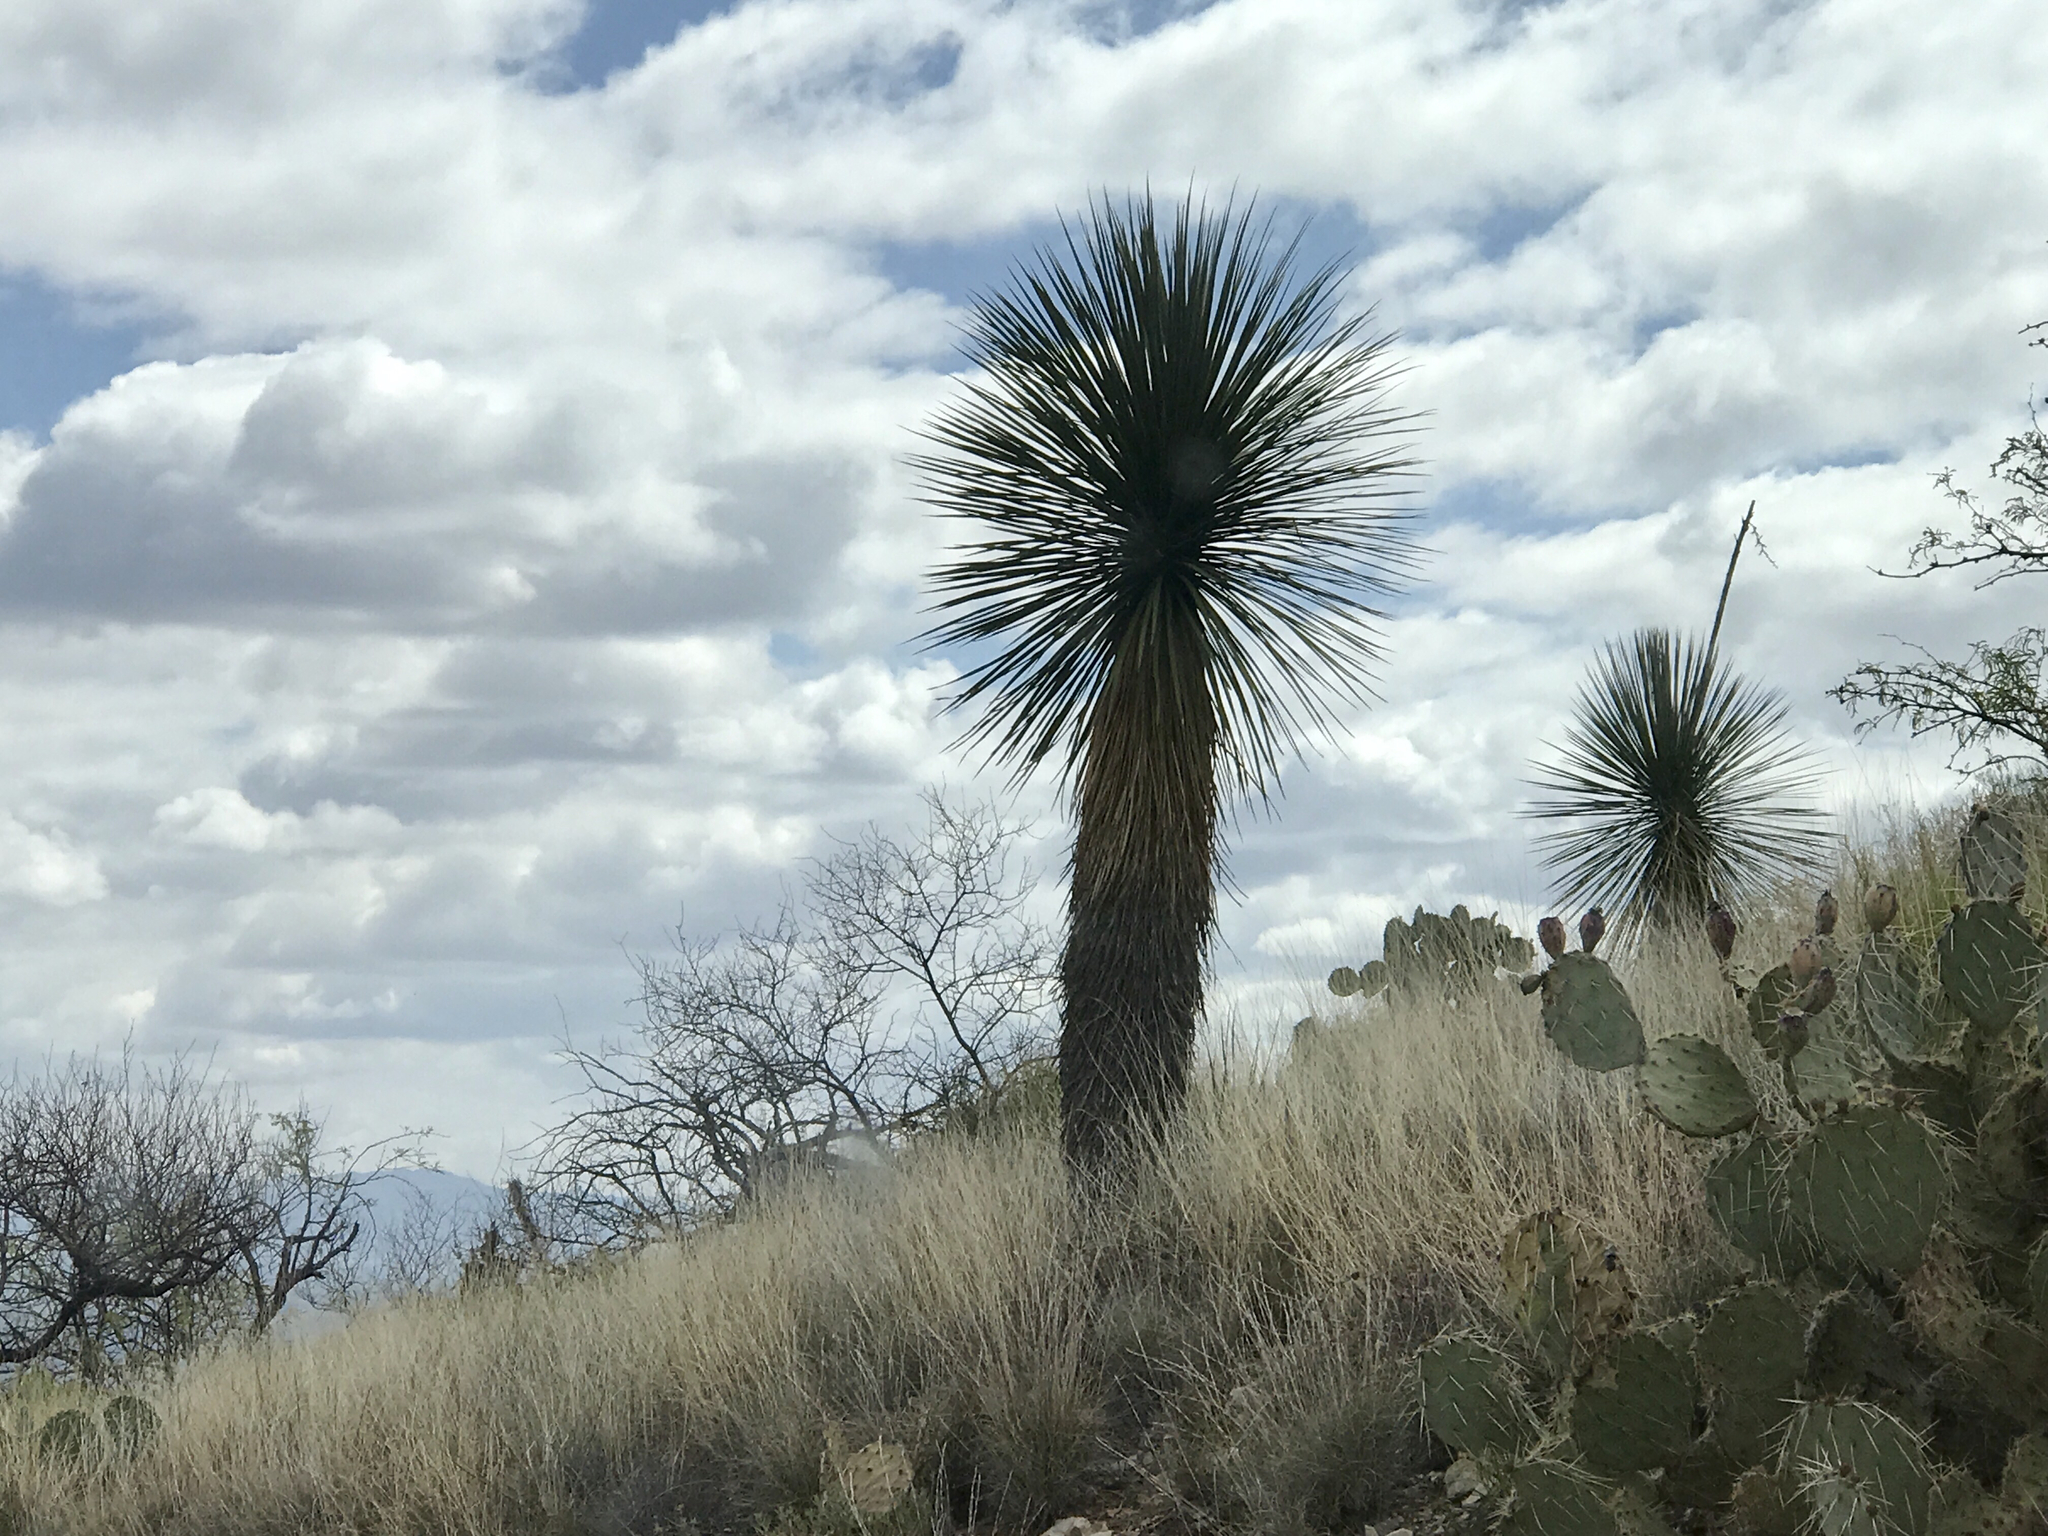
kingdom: Plantae
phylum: Tracheophyta
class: Liliopsida
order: Asparagales
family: Asparagaceae
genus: Yucca
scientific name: Yucca elata
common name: Palmella
